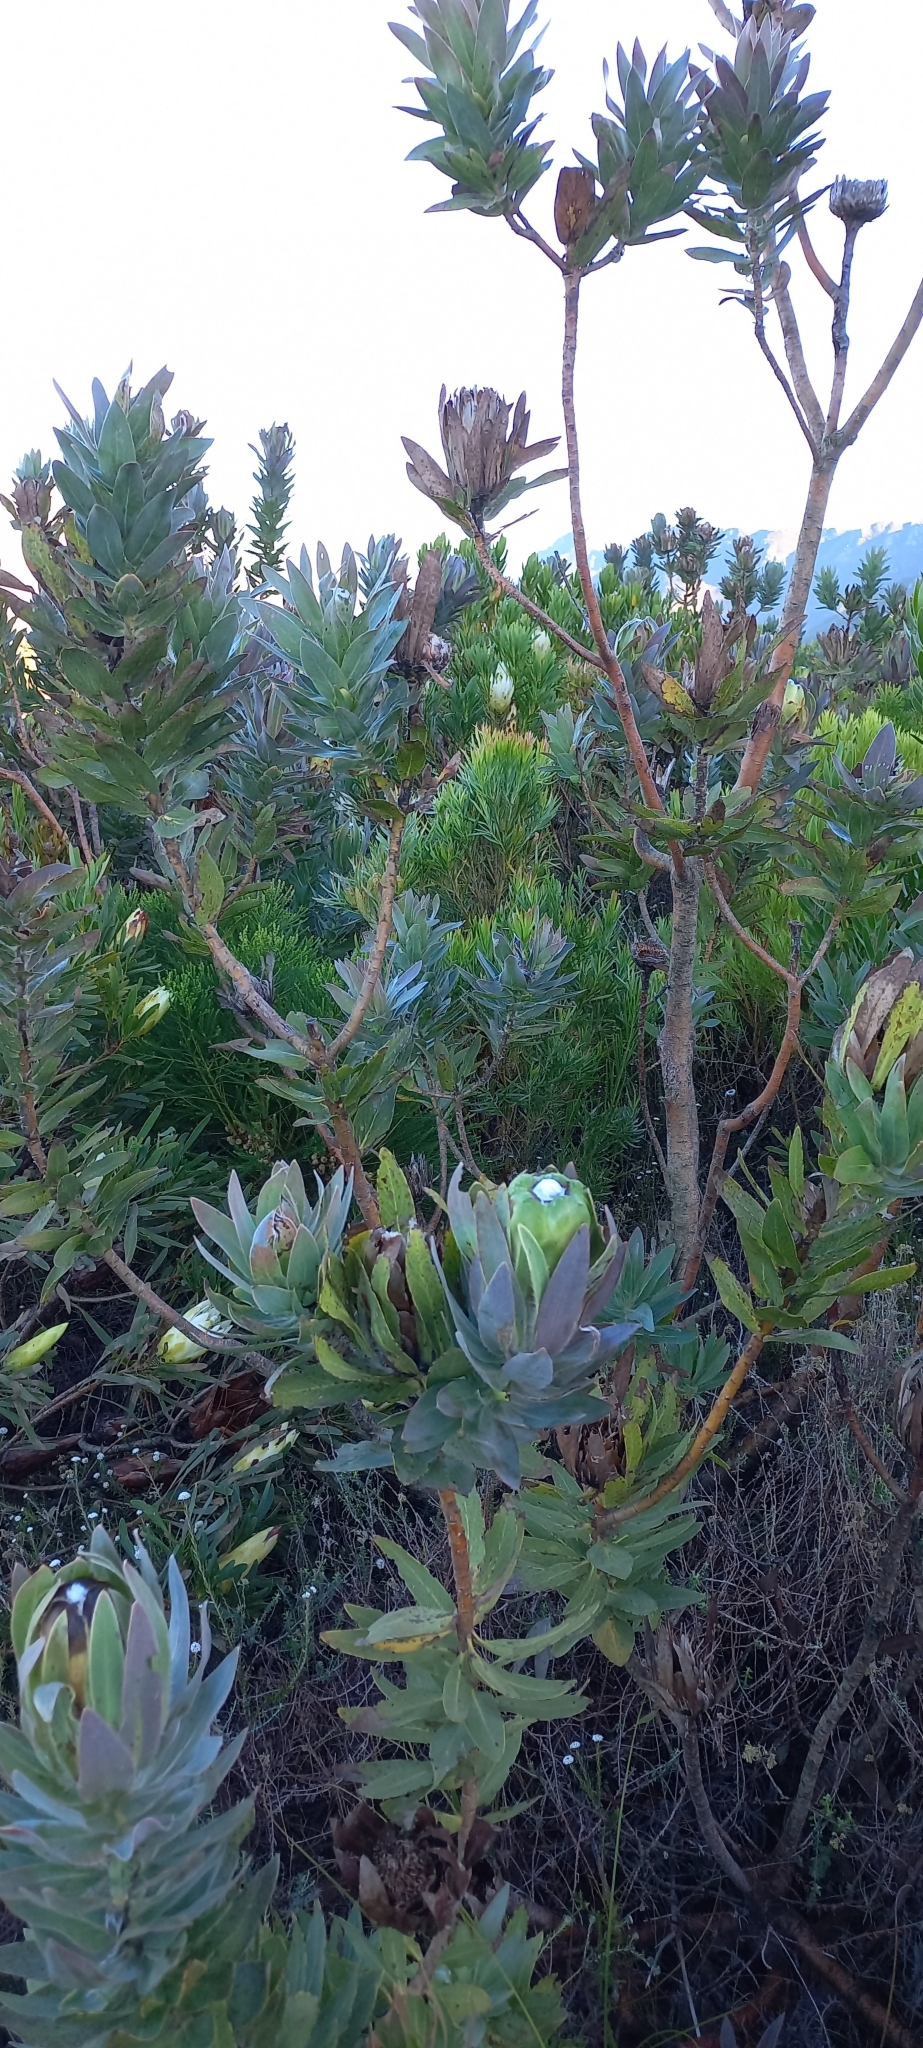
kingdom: Plantae
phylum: Tracheophyta
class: Magnoliopsida
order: Proteales
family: Proteaceae
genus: Protea
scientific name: Protea coronata
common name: Green sugarbush
